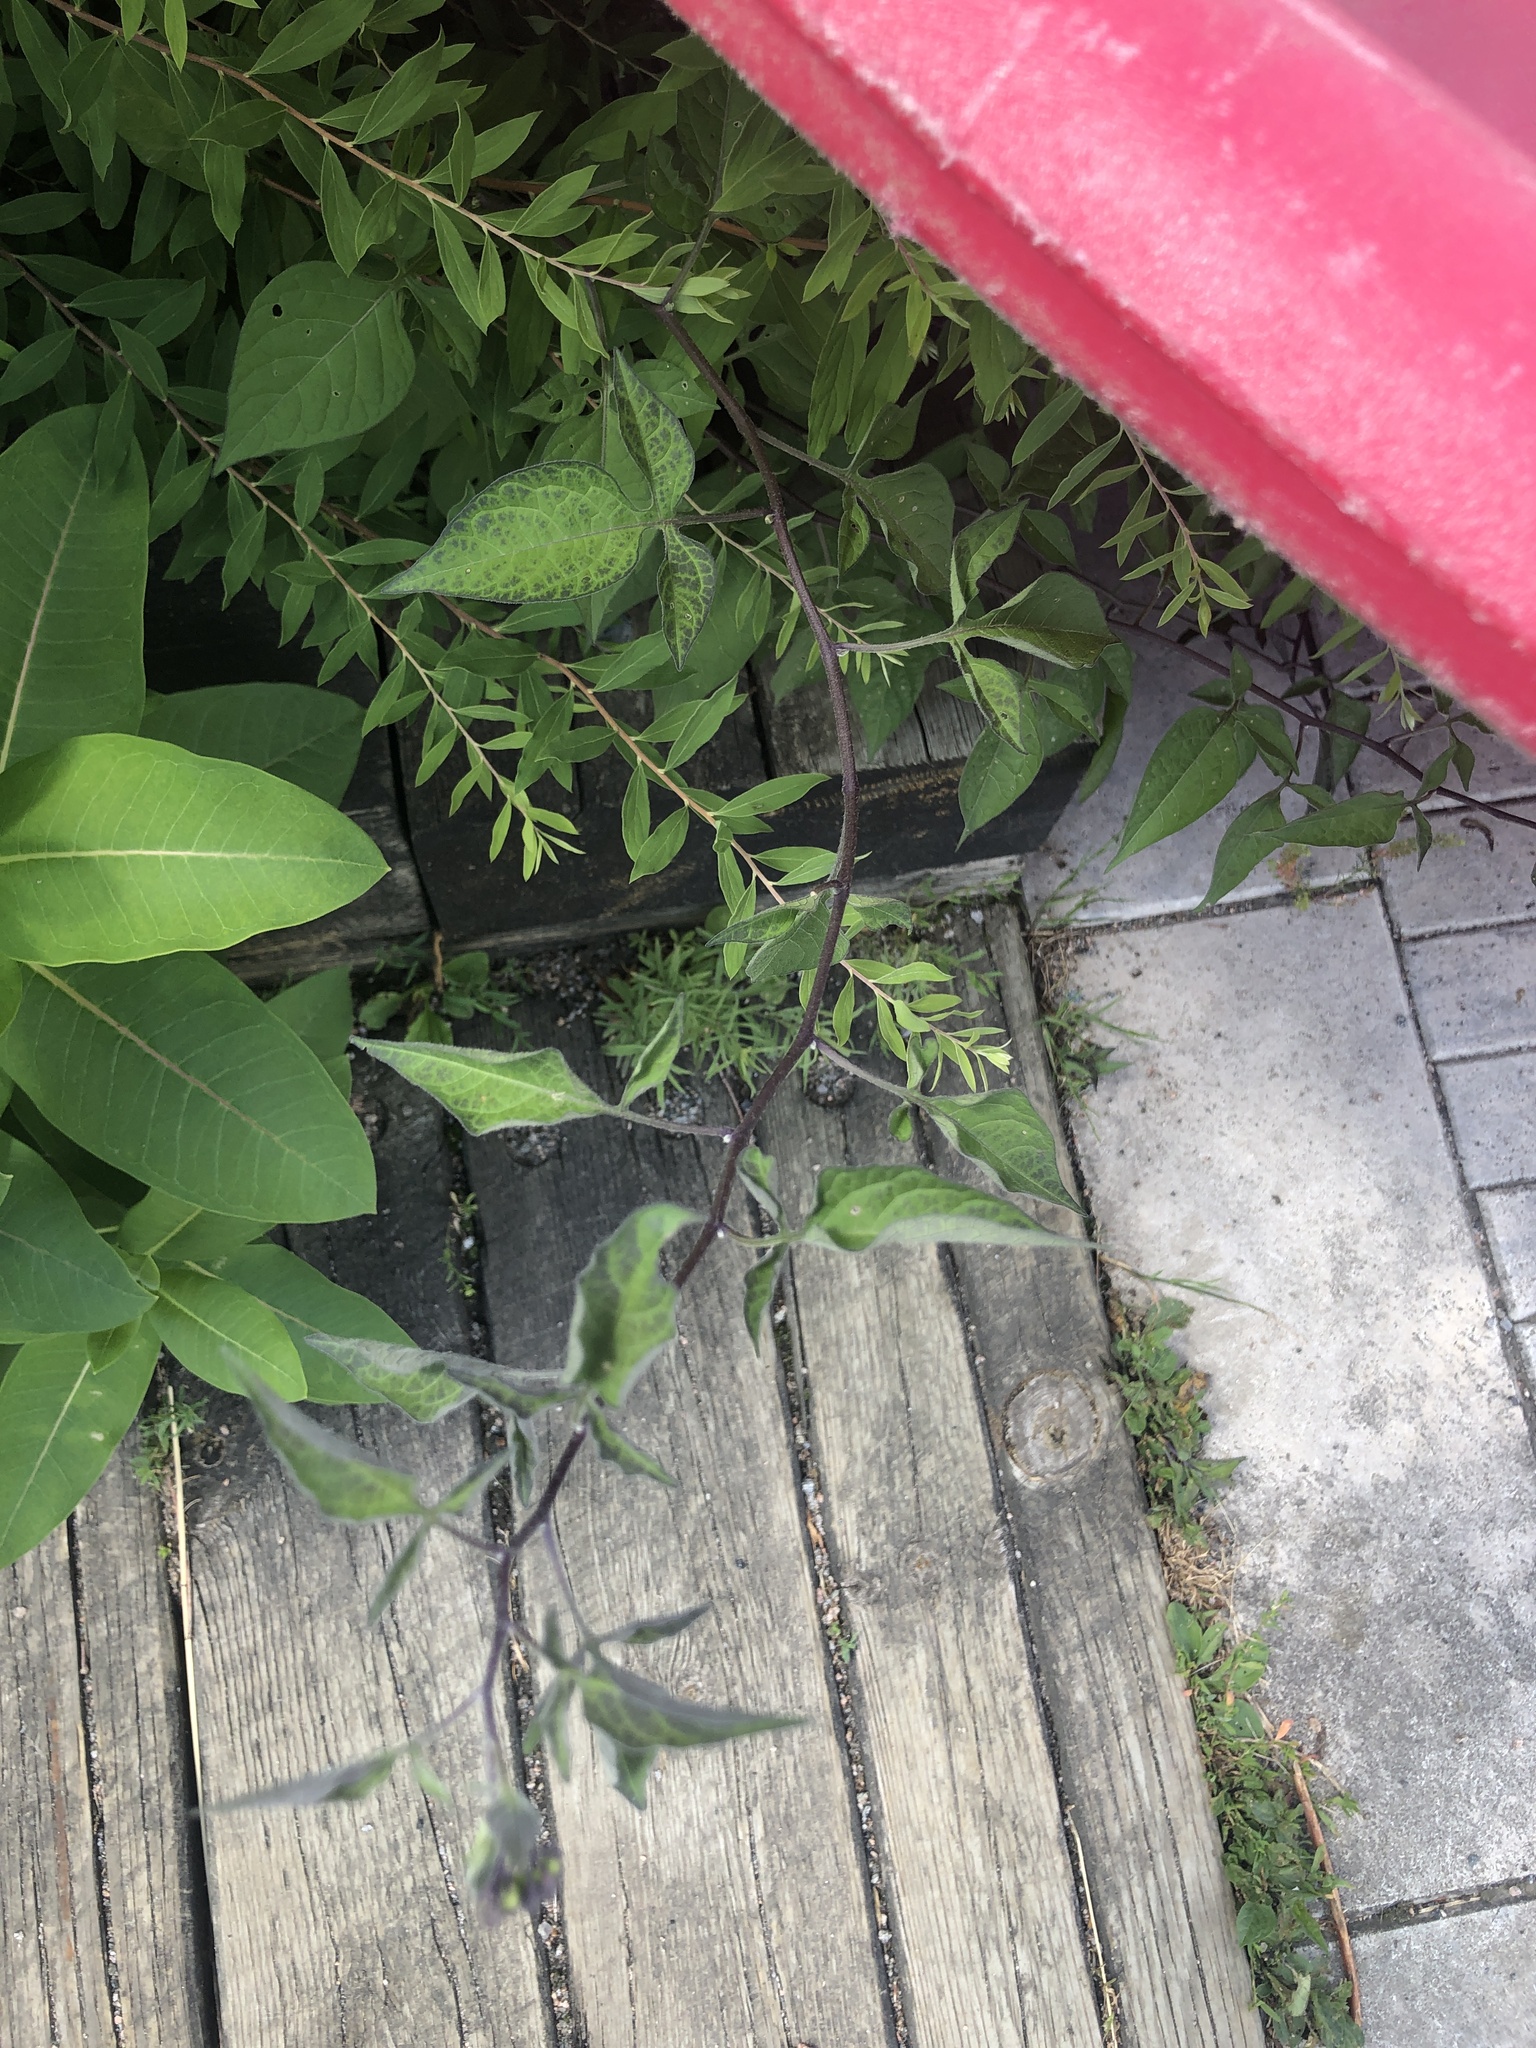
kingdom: Plantae
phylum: Tracheophyta
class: Magnoliopsida
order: Solanales
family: Solanaceae
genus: Solanum
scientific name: Solanum dulcamara
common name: Climbing nightshade
